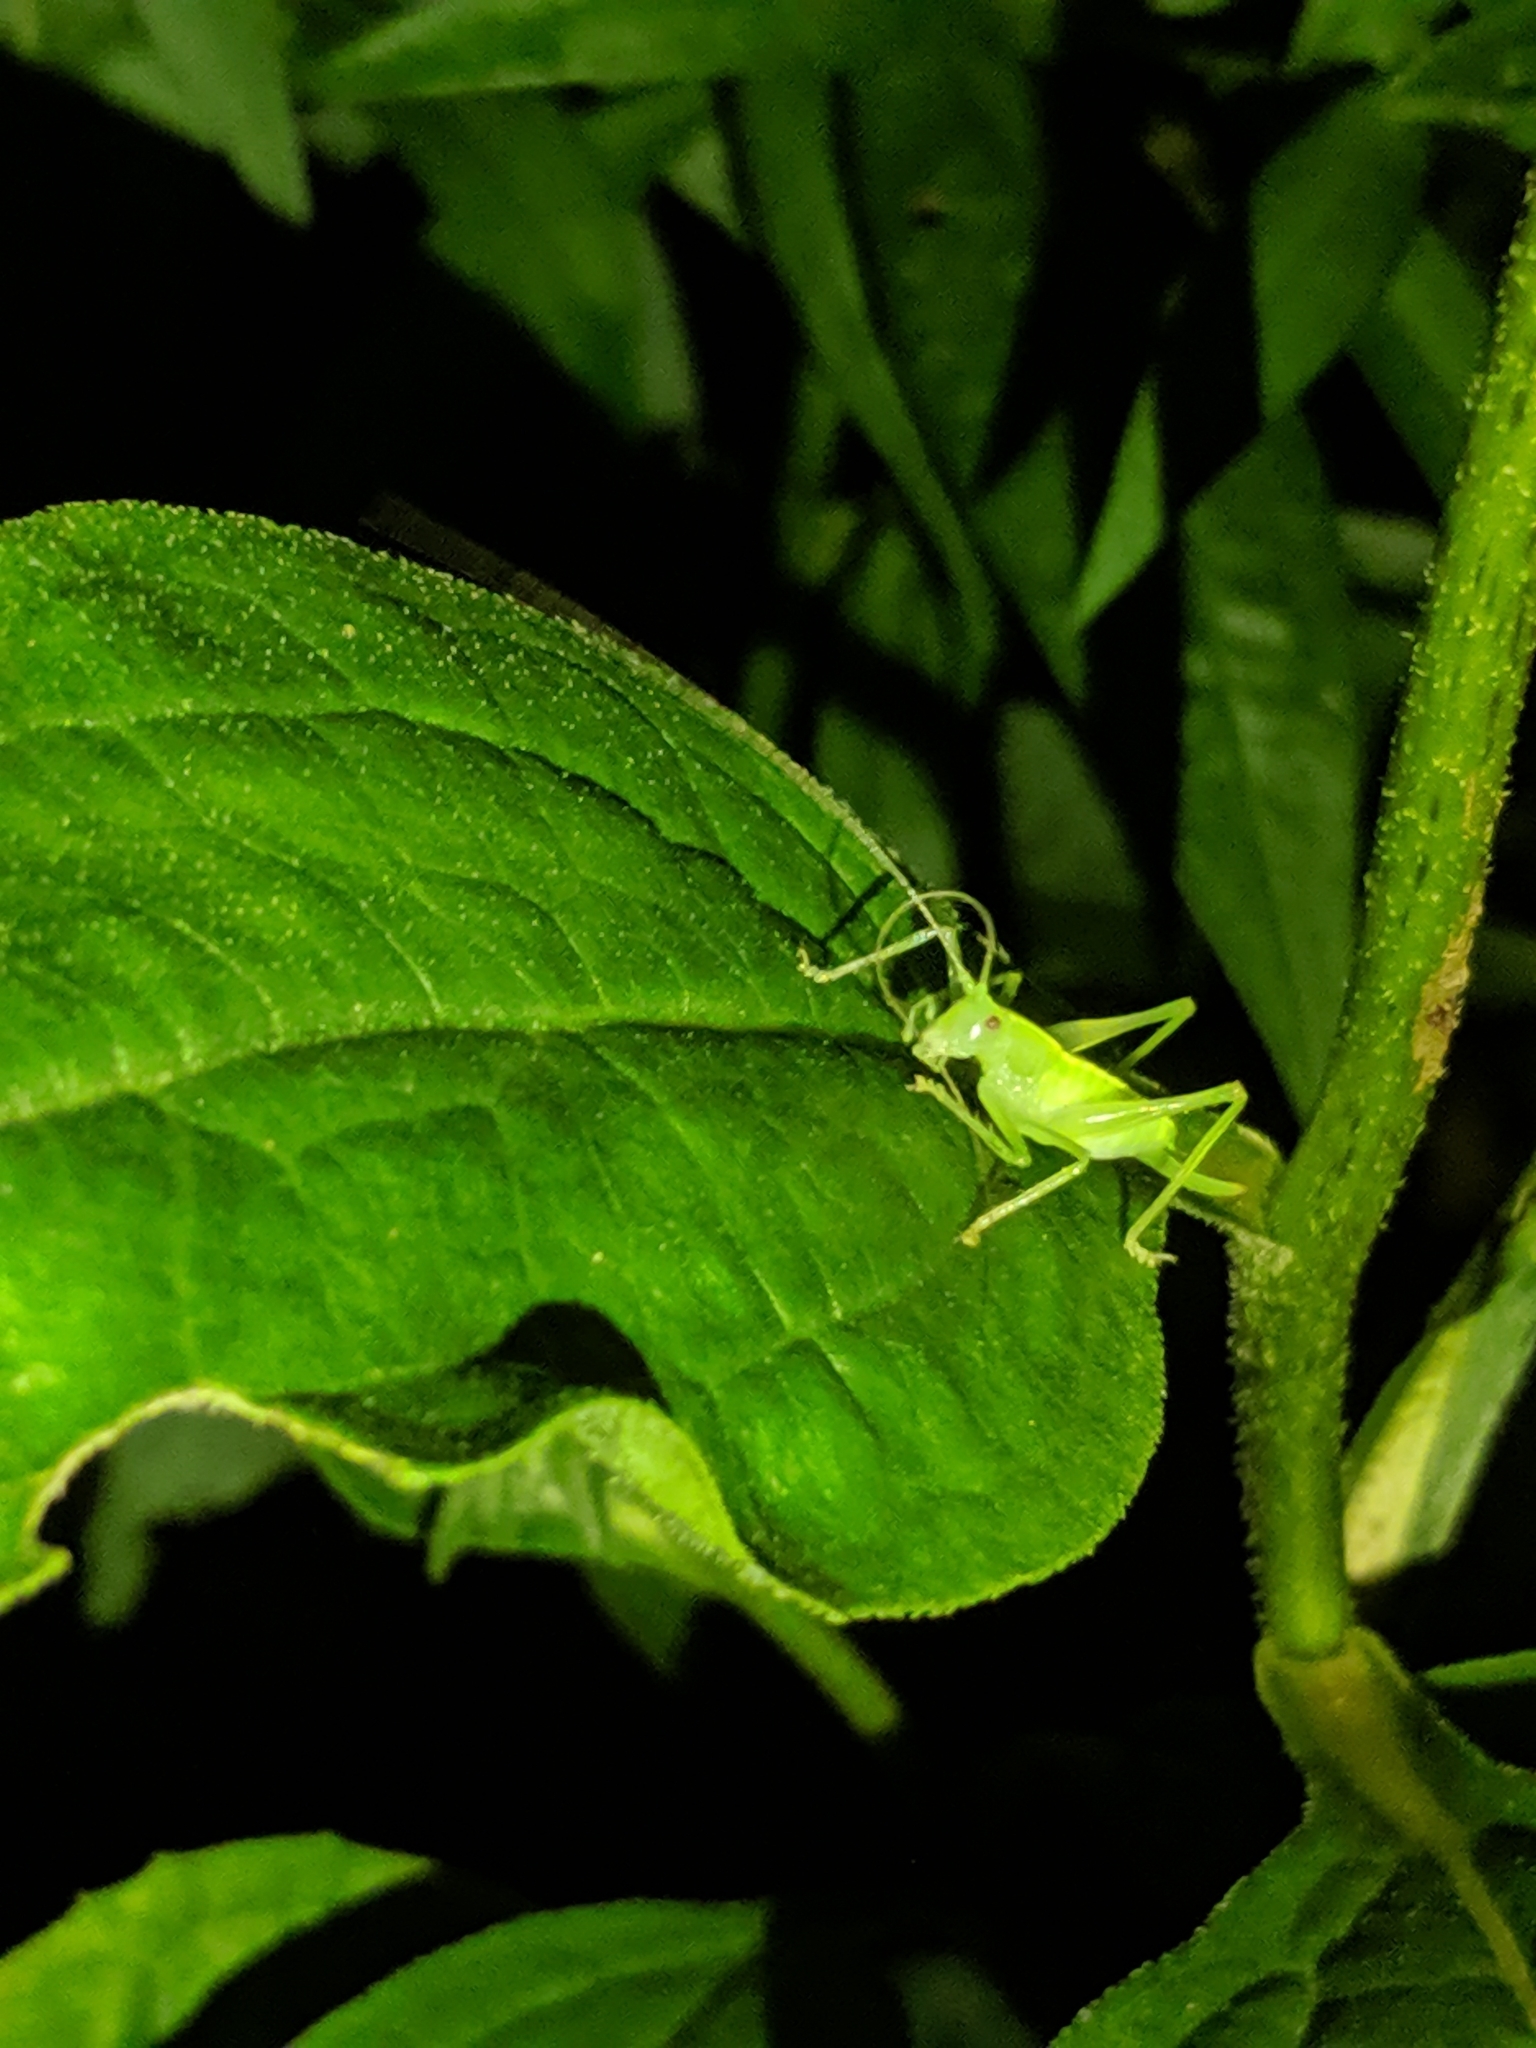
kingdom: Animalia
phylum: Arthropoda
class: Insecta
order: Orthoptera
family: Tettigoniidae
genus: Meconema
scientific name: Meconema meridionale
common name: Southern oak bush-cricket
